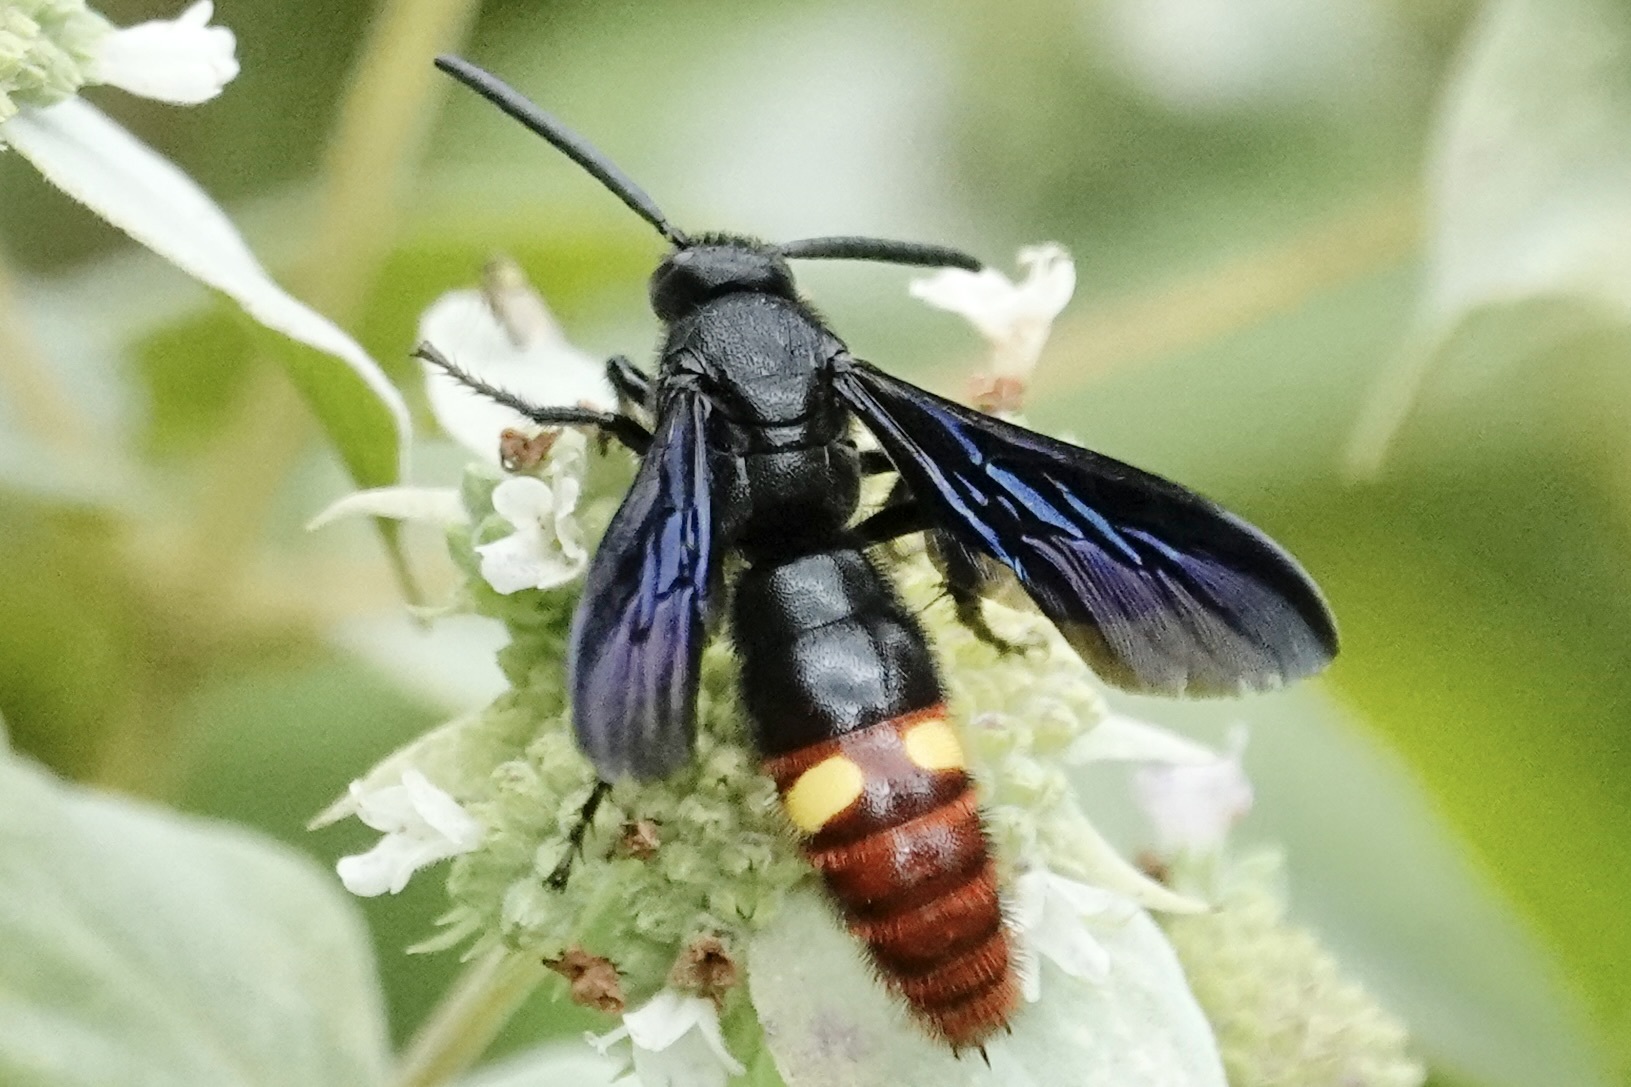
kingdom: Animalia
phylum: Arthropoda
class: Insecta
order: Hymenoptera
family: Scoliidae
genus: Scolia
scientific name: Scolia dubia
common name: Blue-winged scoliid wasp
